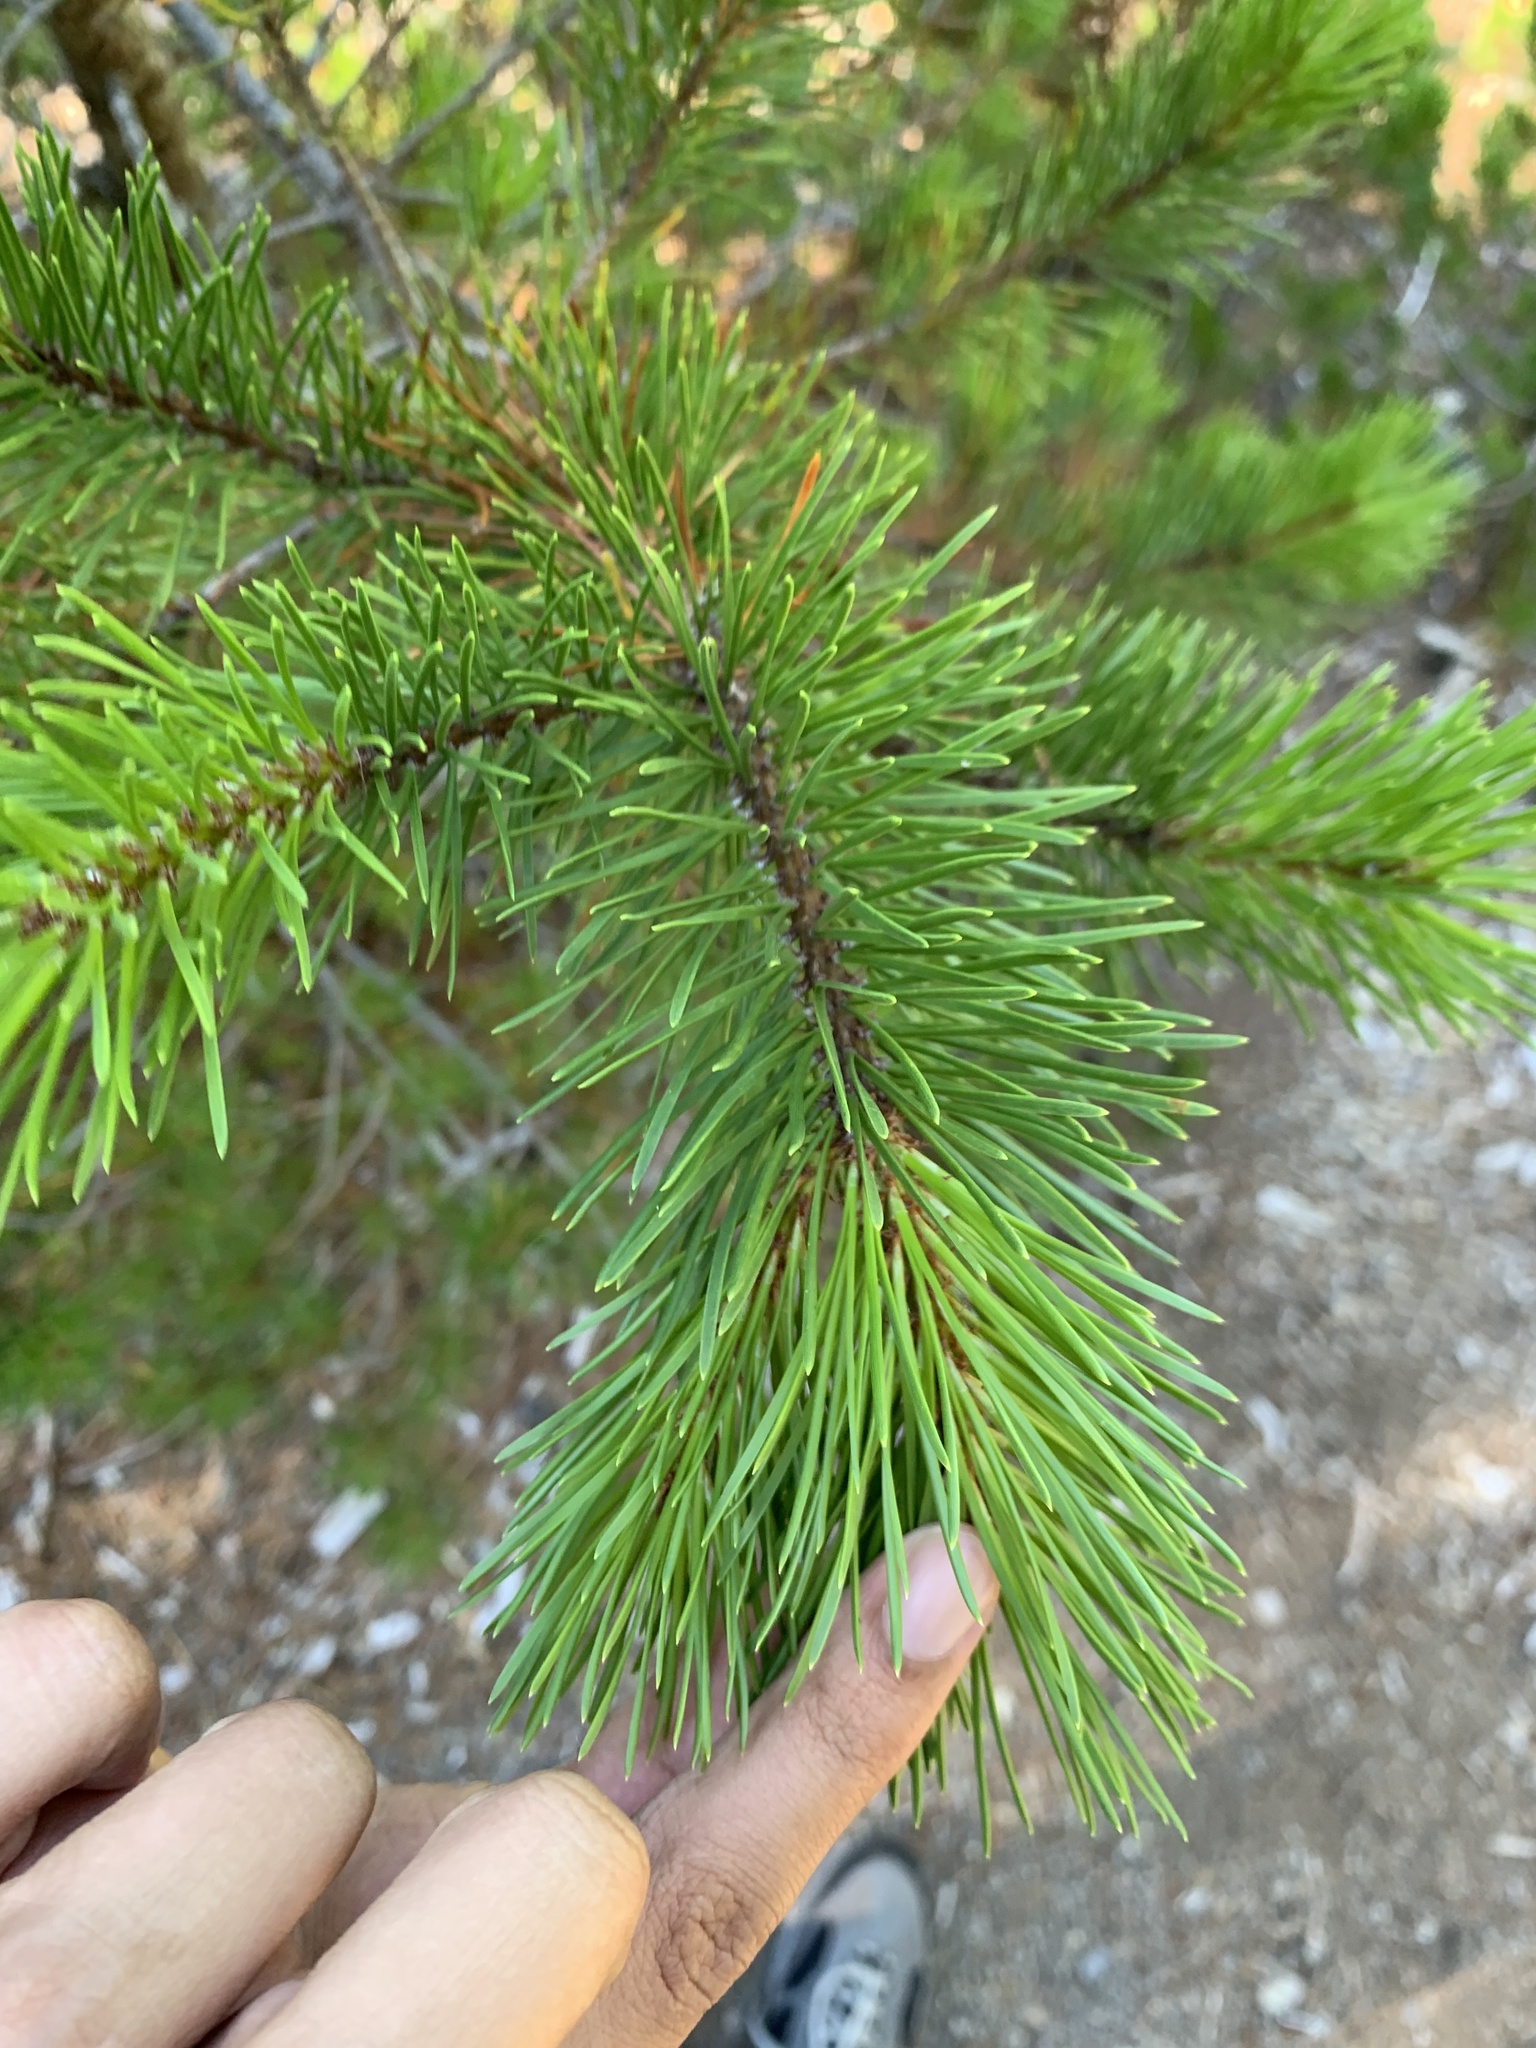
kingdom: Plantae
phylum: Tracheophyta
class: Pinopsida
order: Pinales
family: Pinaceae
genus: Pinus
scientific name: Pinus contorta
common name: Lodgepole pine
